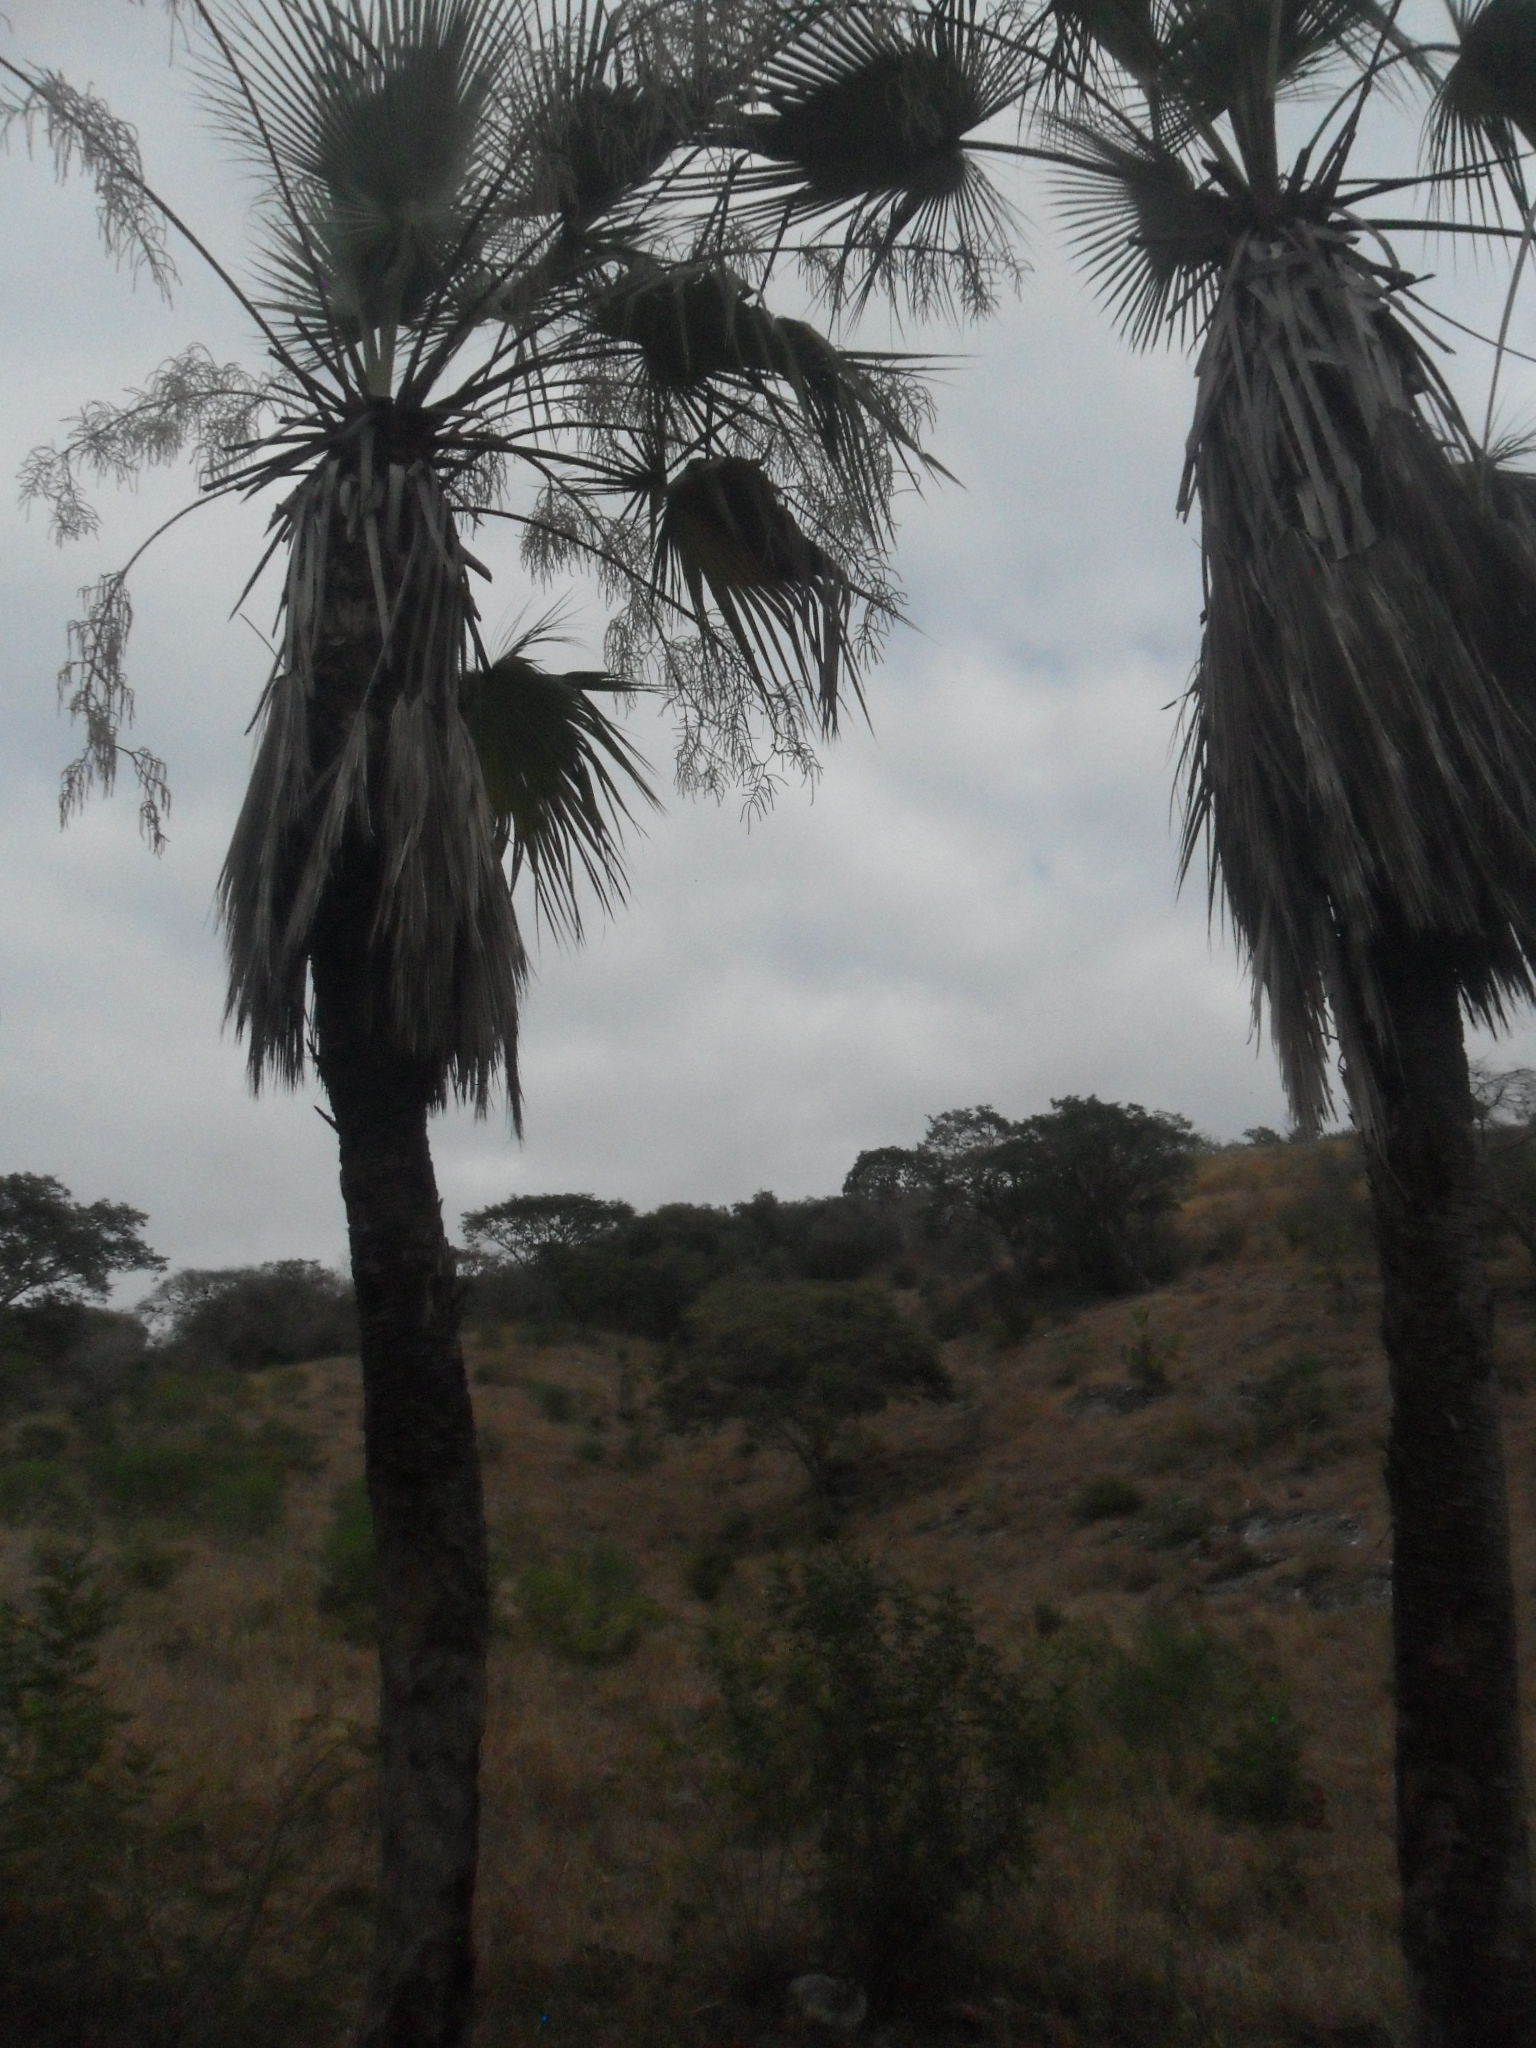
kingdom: Plantae
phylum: Tracheophyta
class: Liliopsida
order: Arecales
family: Arecaceae
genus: Brahea
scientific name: Brahea dulcis
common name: Apak palm
